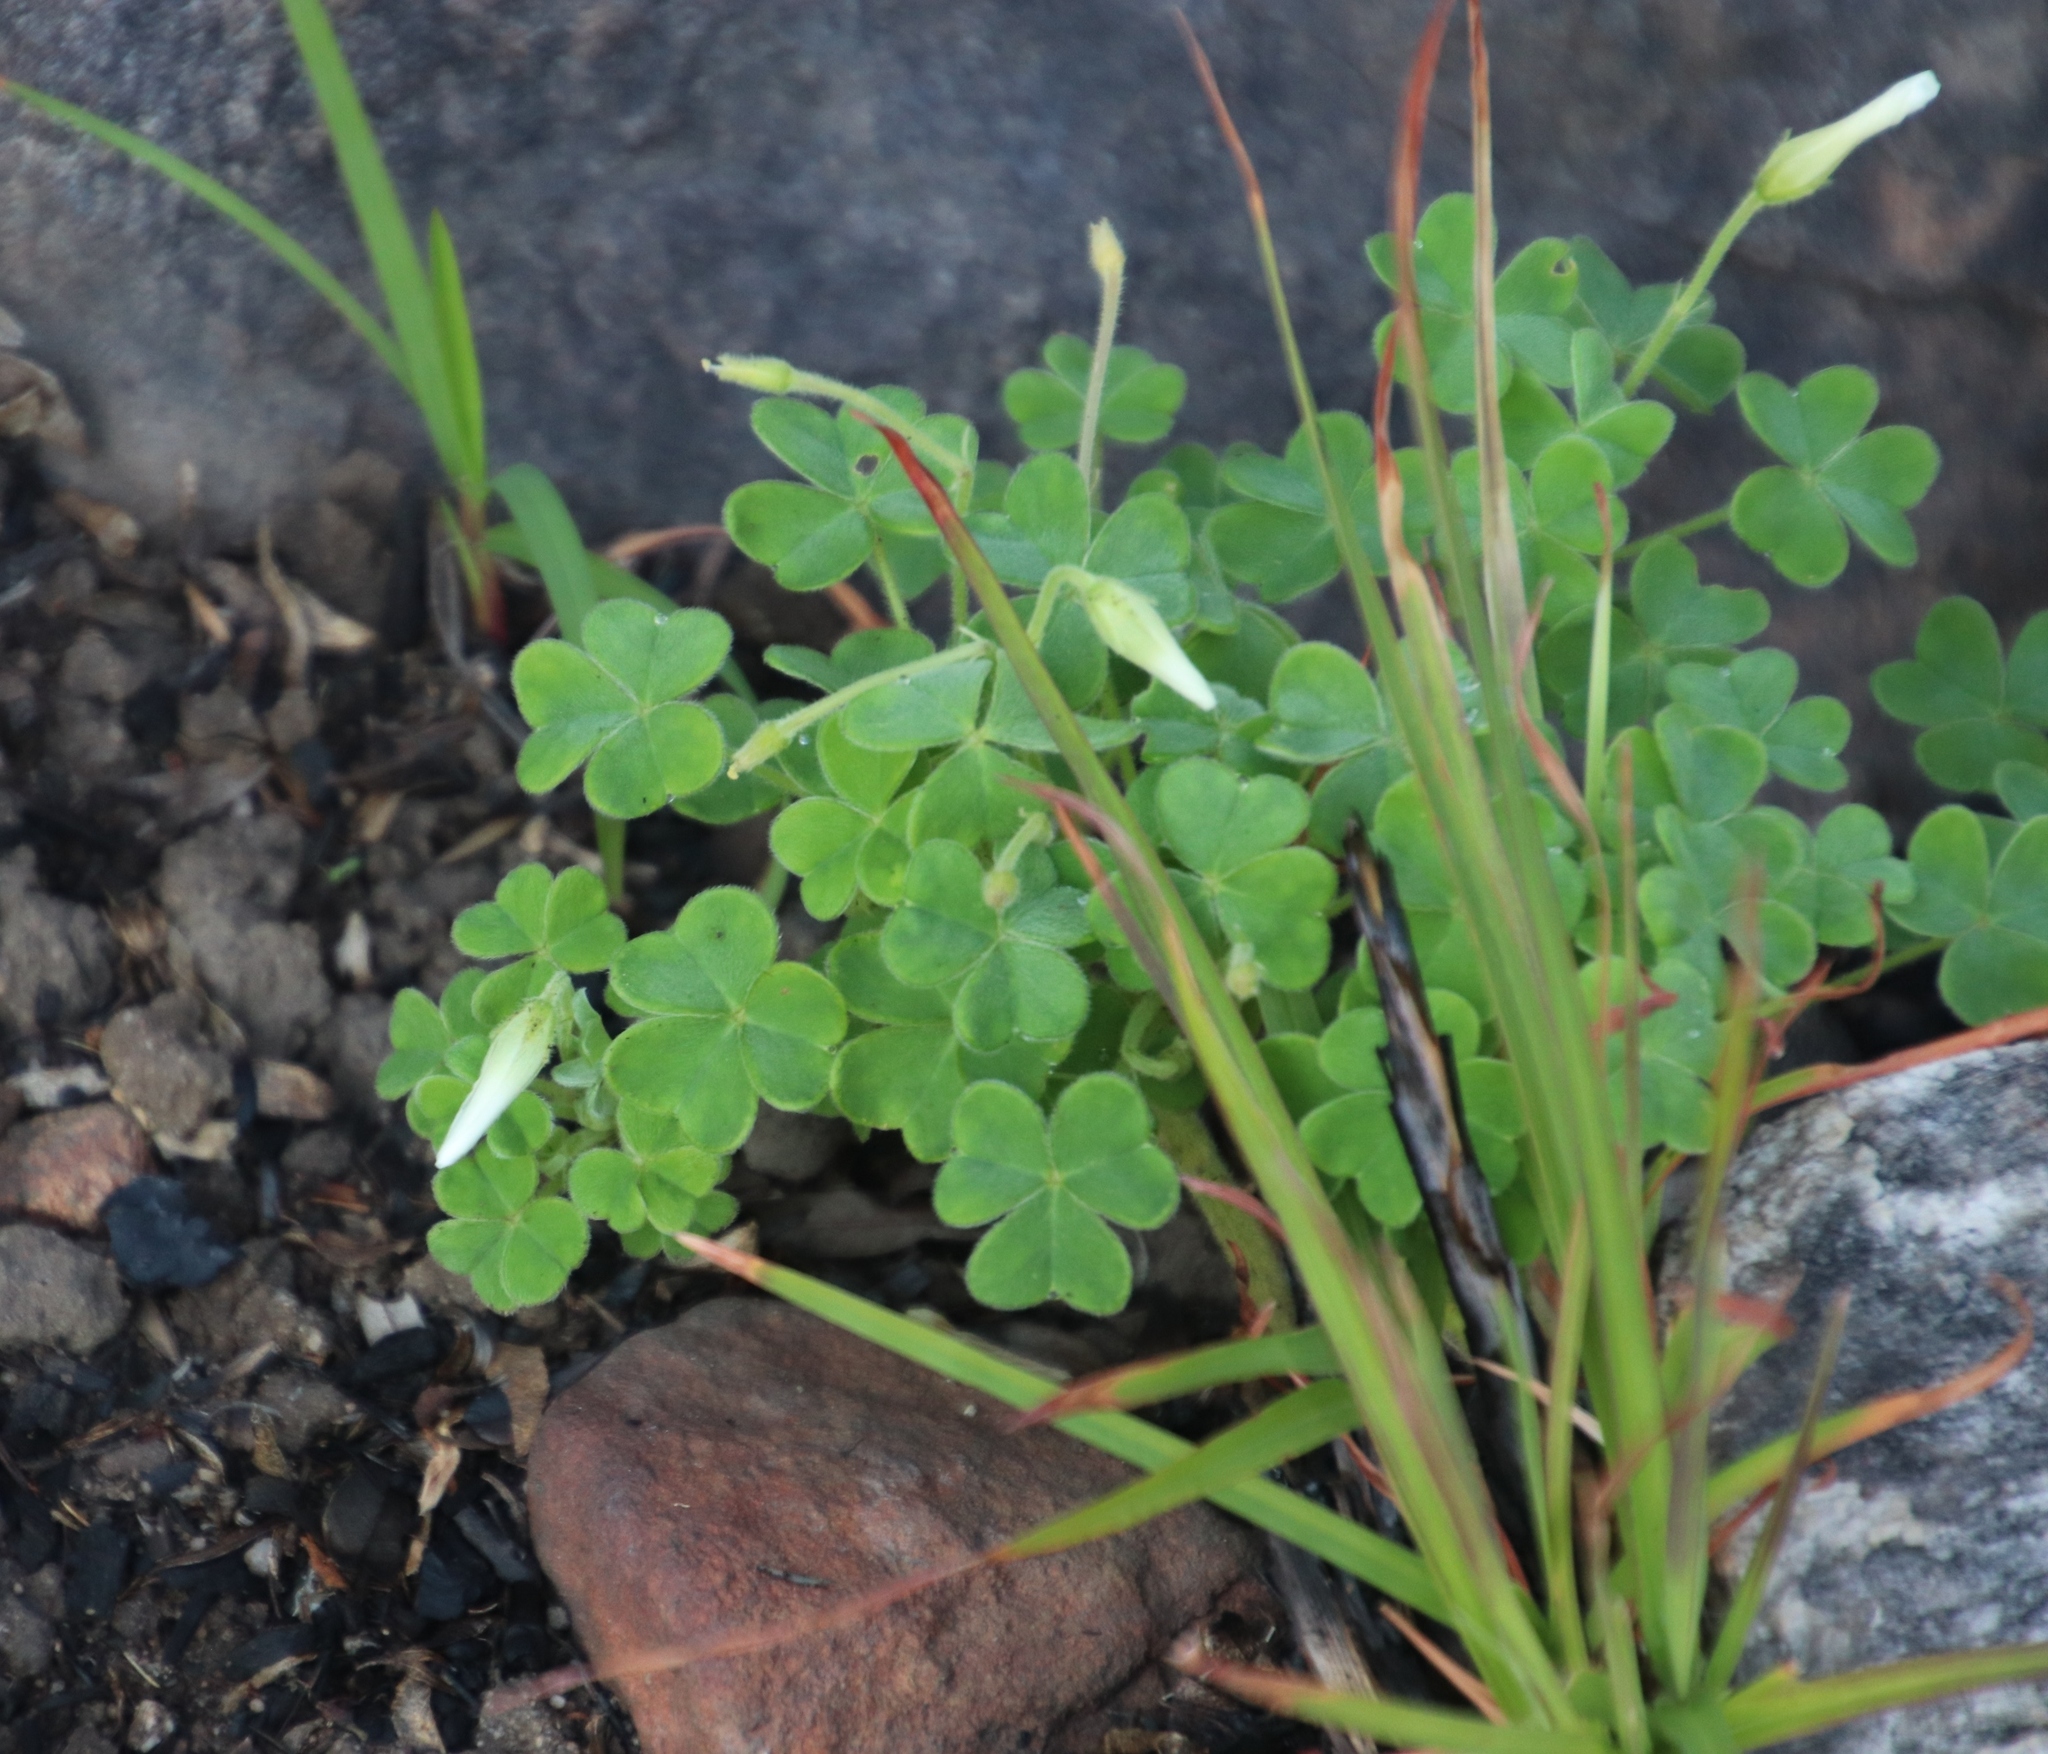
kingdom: Plantae
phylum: Tracheophyta
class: Magnoliopsida
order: Oxalidales
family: Oxalidaceae
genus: Oxalis
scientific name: Oxalis lanata
